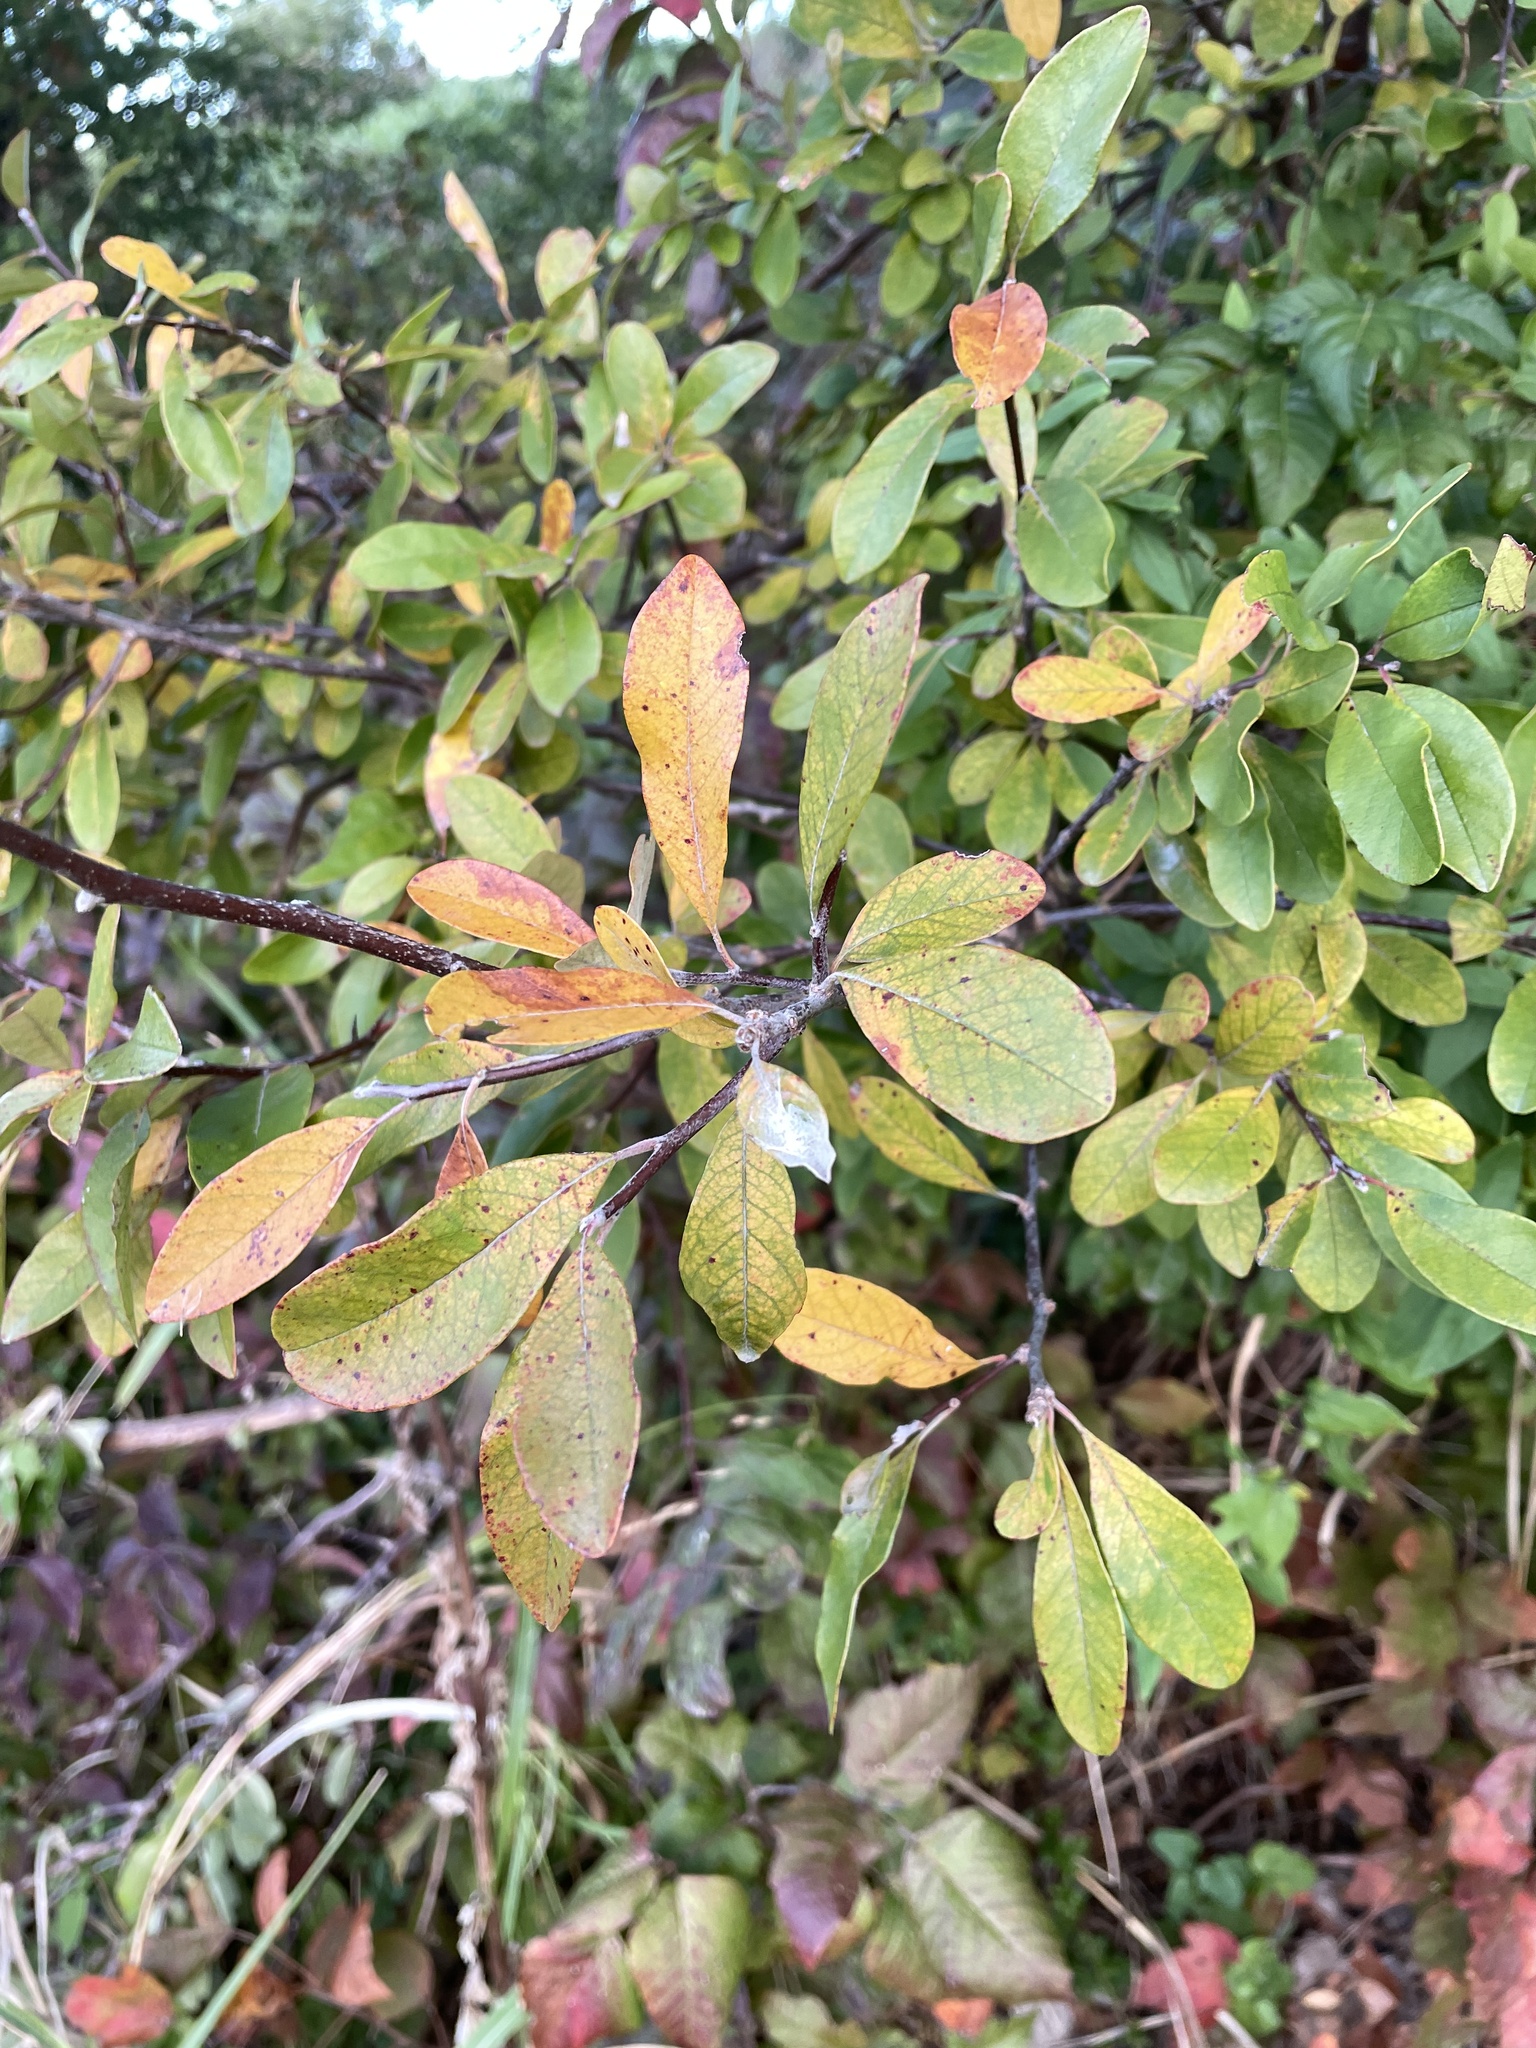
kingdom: Plantae
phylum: Tracheophyta
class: Magnoliopsida
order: Ericales
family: Sapotaceae
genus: Sideroxylon
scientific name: Sideroxylon lanuginosum
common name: Chittamwood
